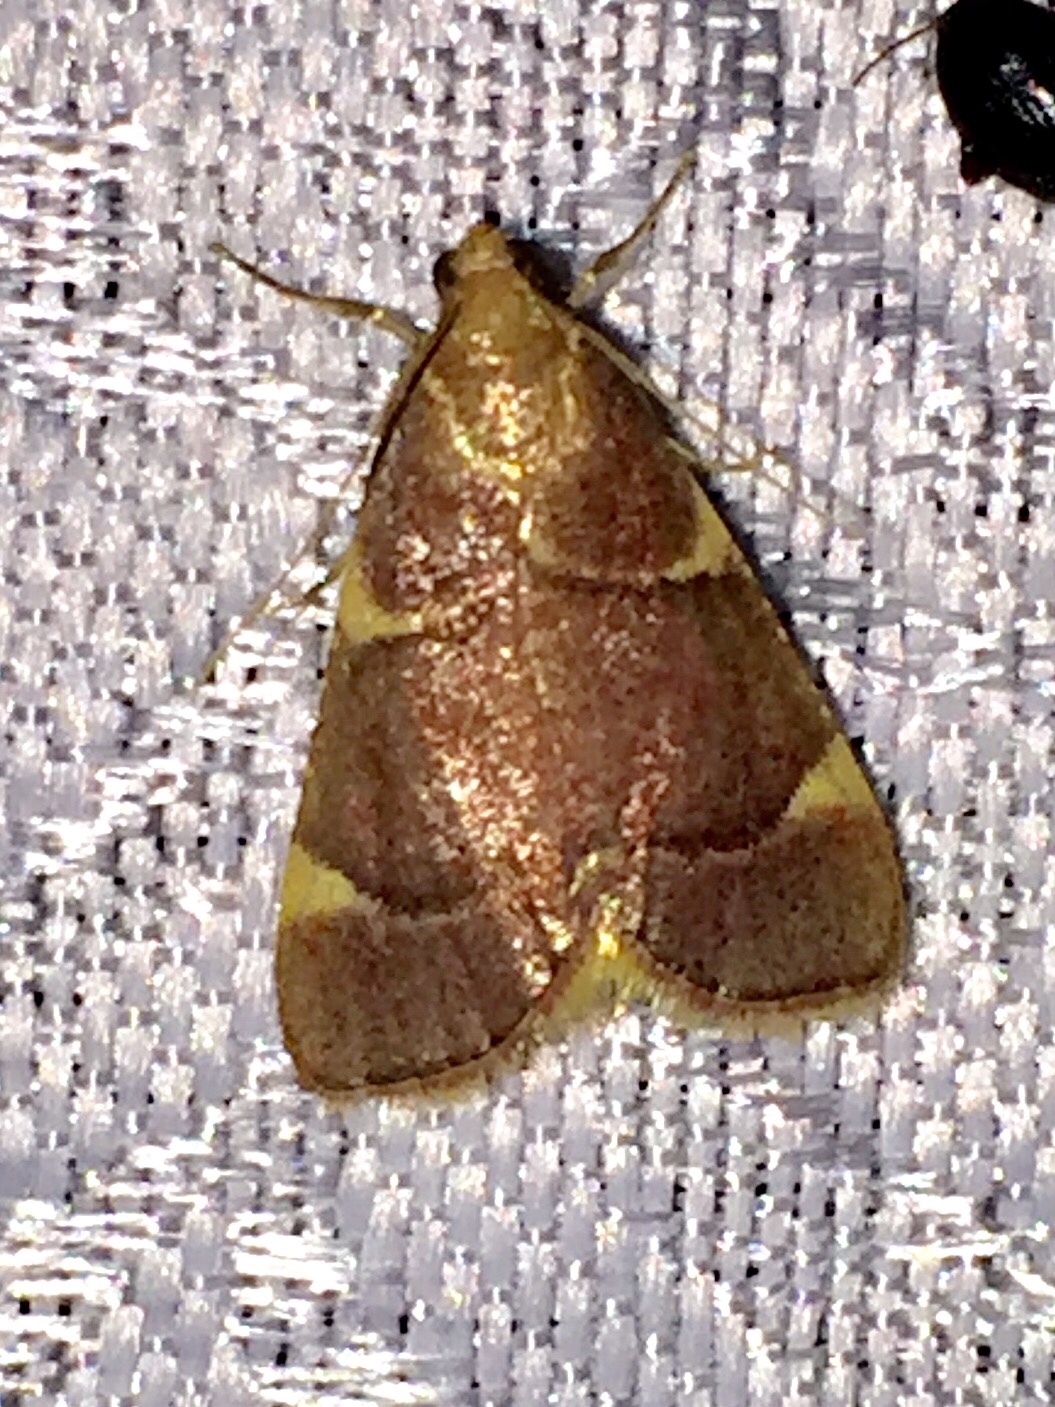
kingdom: Animalia
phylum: Arthropoda
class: Insecta
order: Lepidoptera
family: Pyralidae
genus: Hypsopygia
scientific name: Hypsopygia olinalis
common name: Yellow-fringed dolichomia moth
